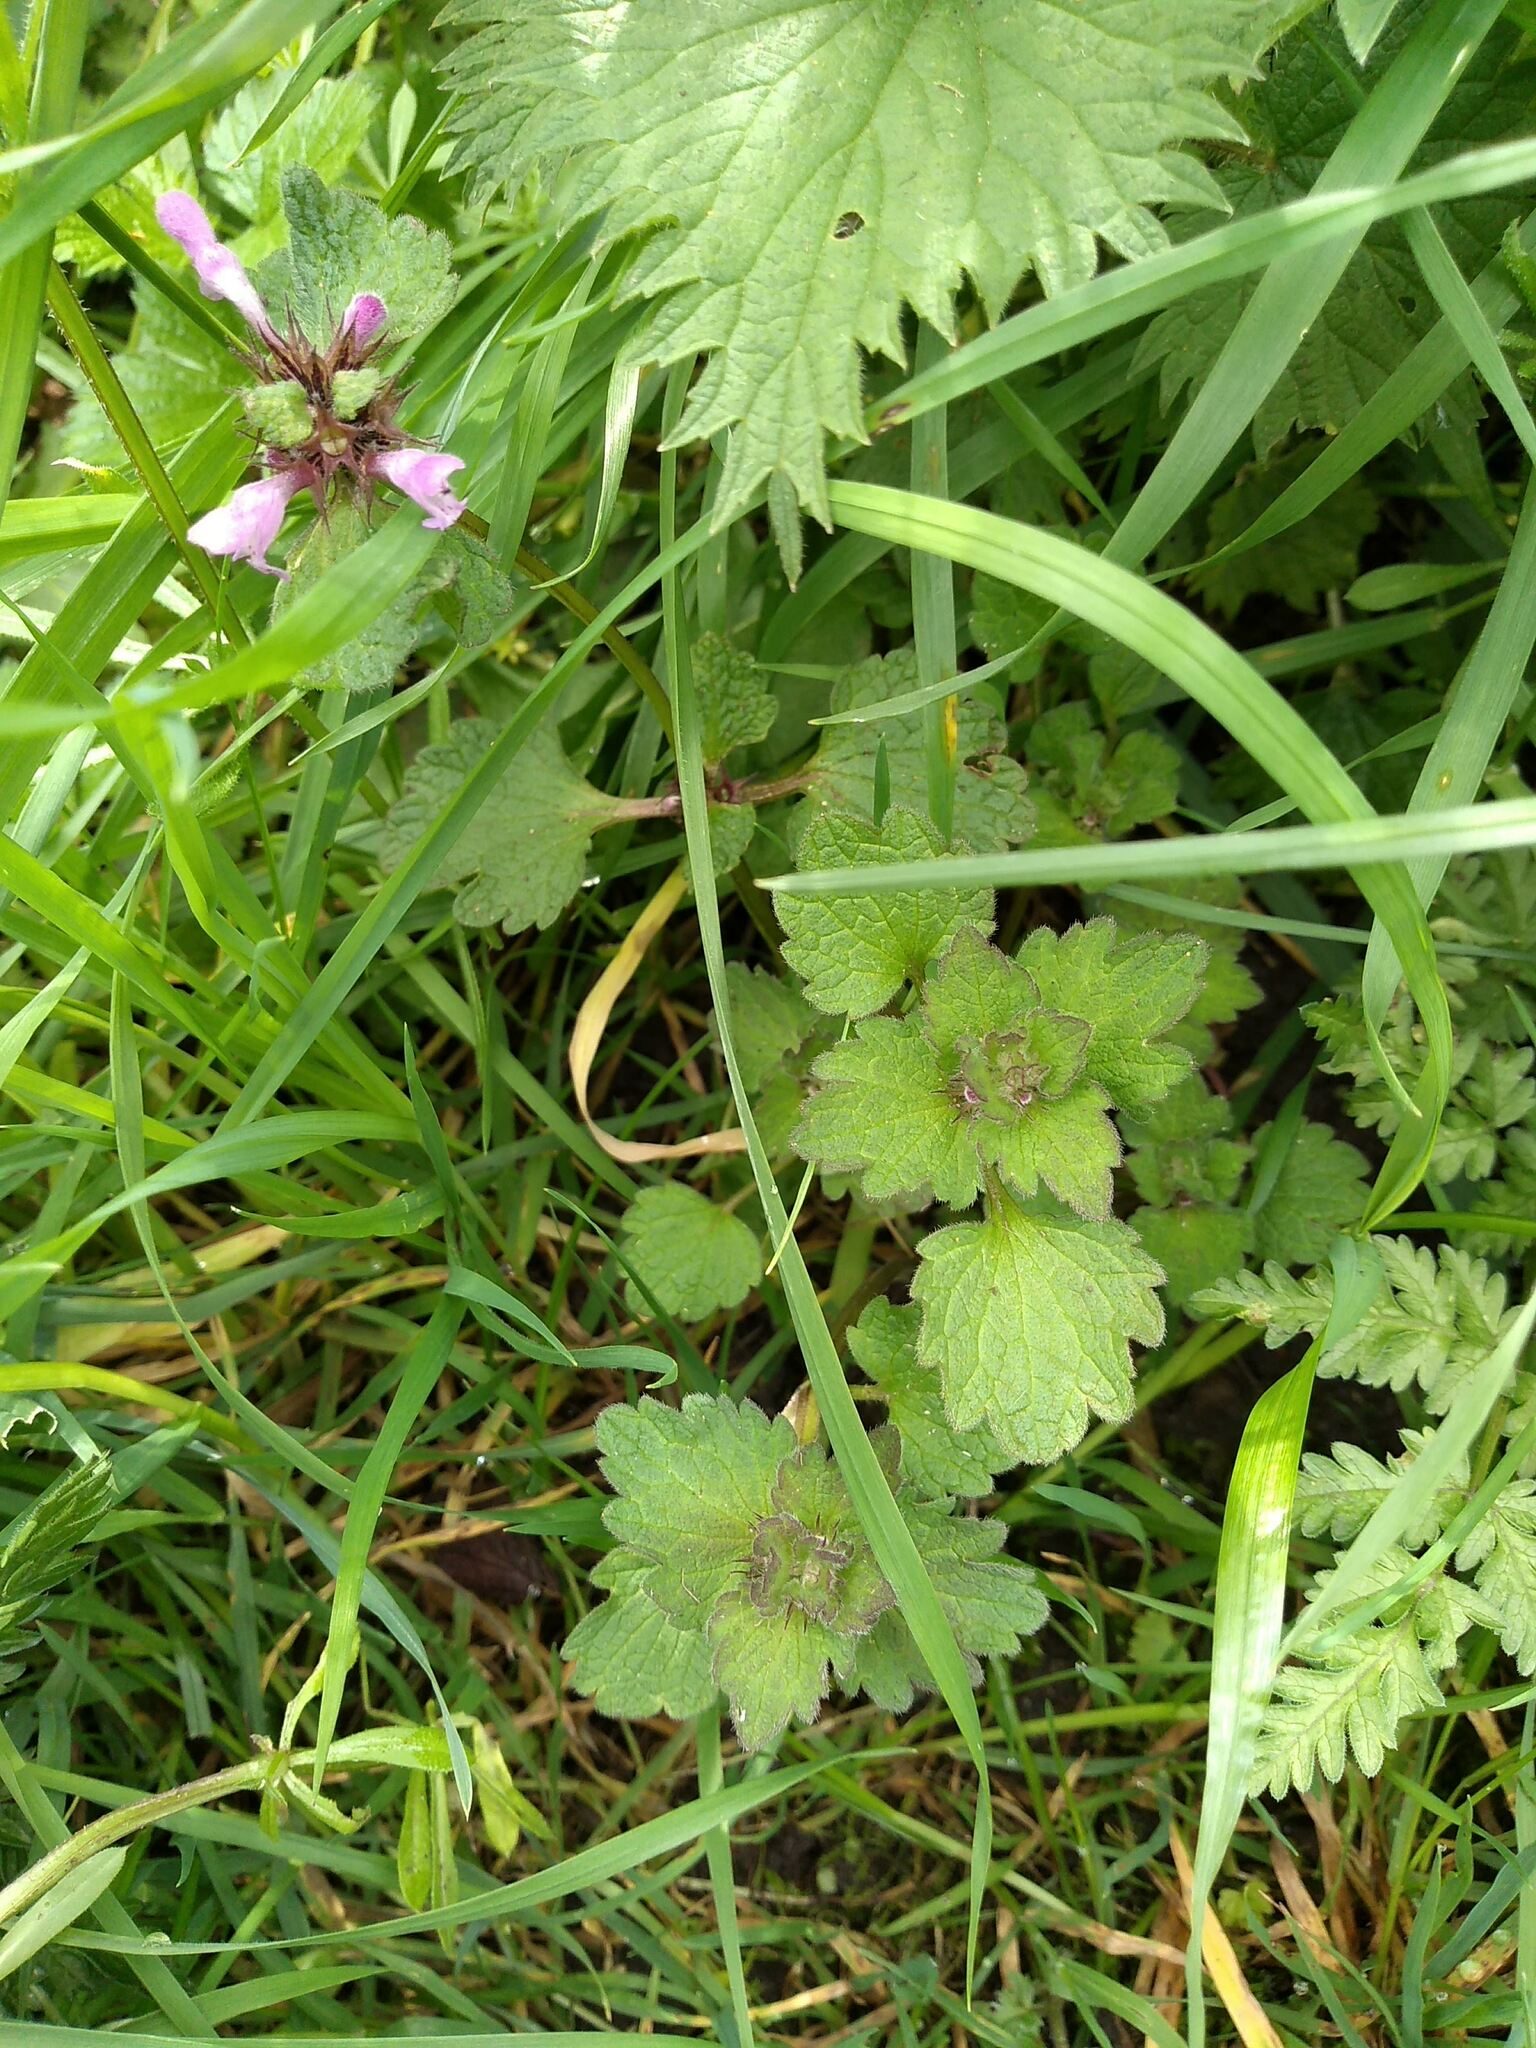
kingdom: Plantae
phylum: Tracheophyta
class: Magnoliopsida
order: Lamiales
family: Lamiaceae
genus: Lamium
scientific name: Lamium purpureum
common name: Red dead-nettle
